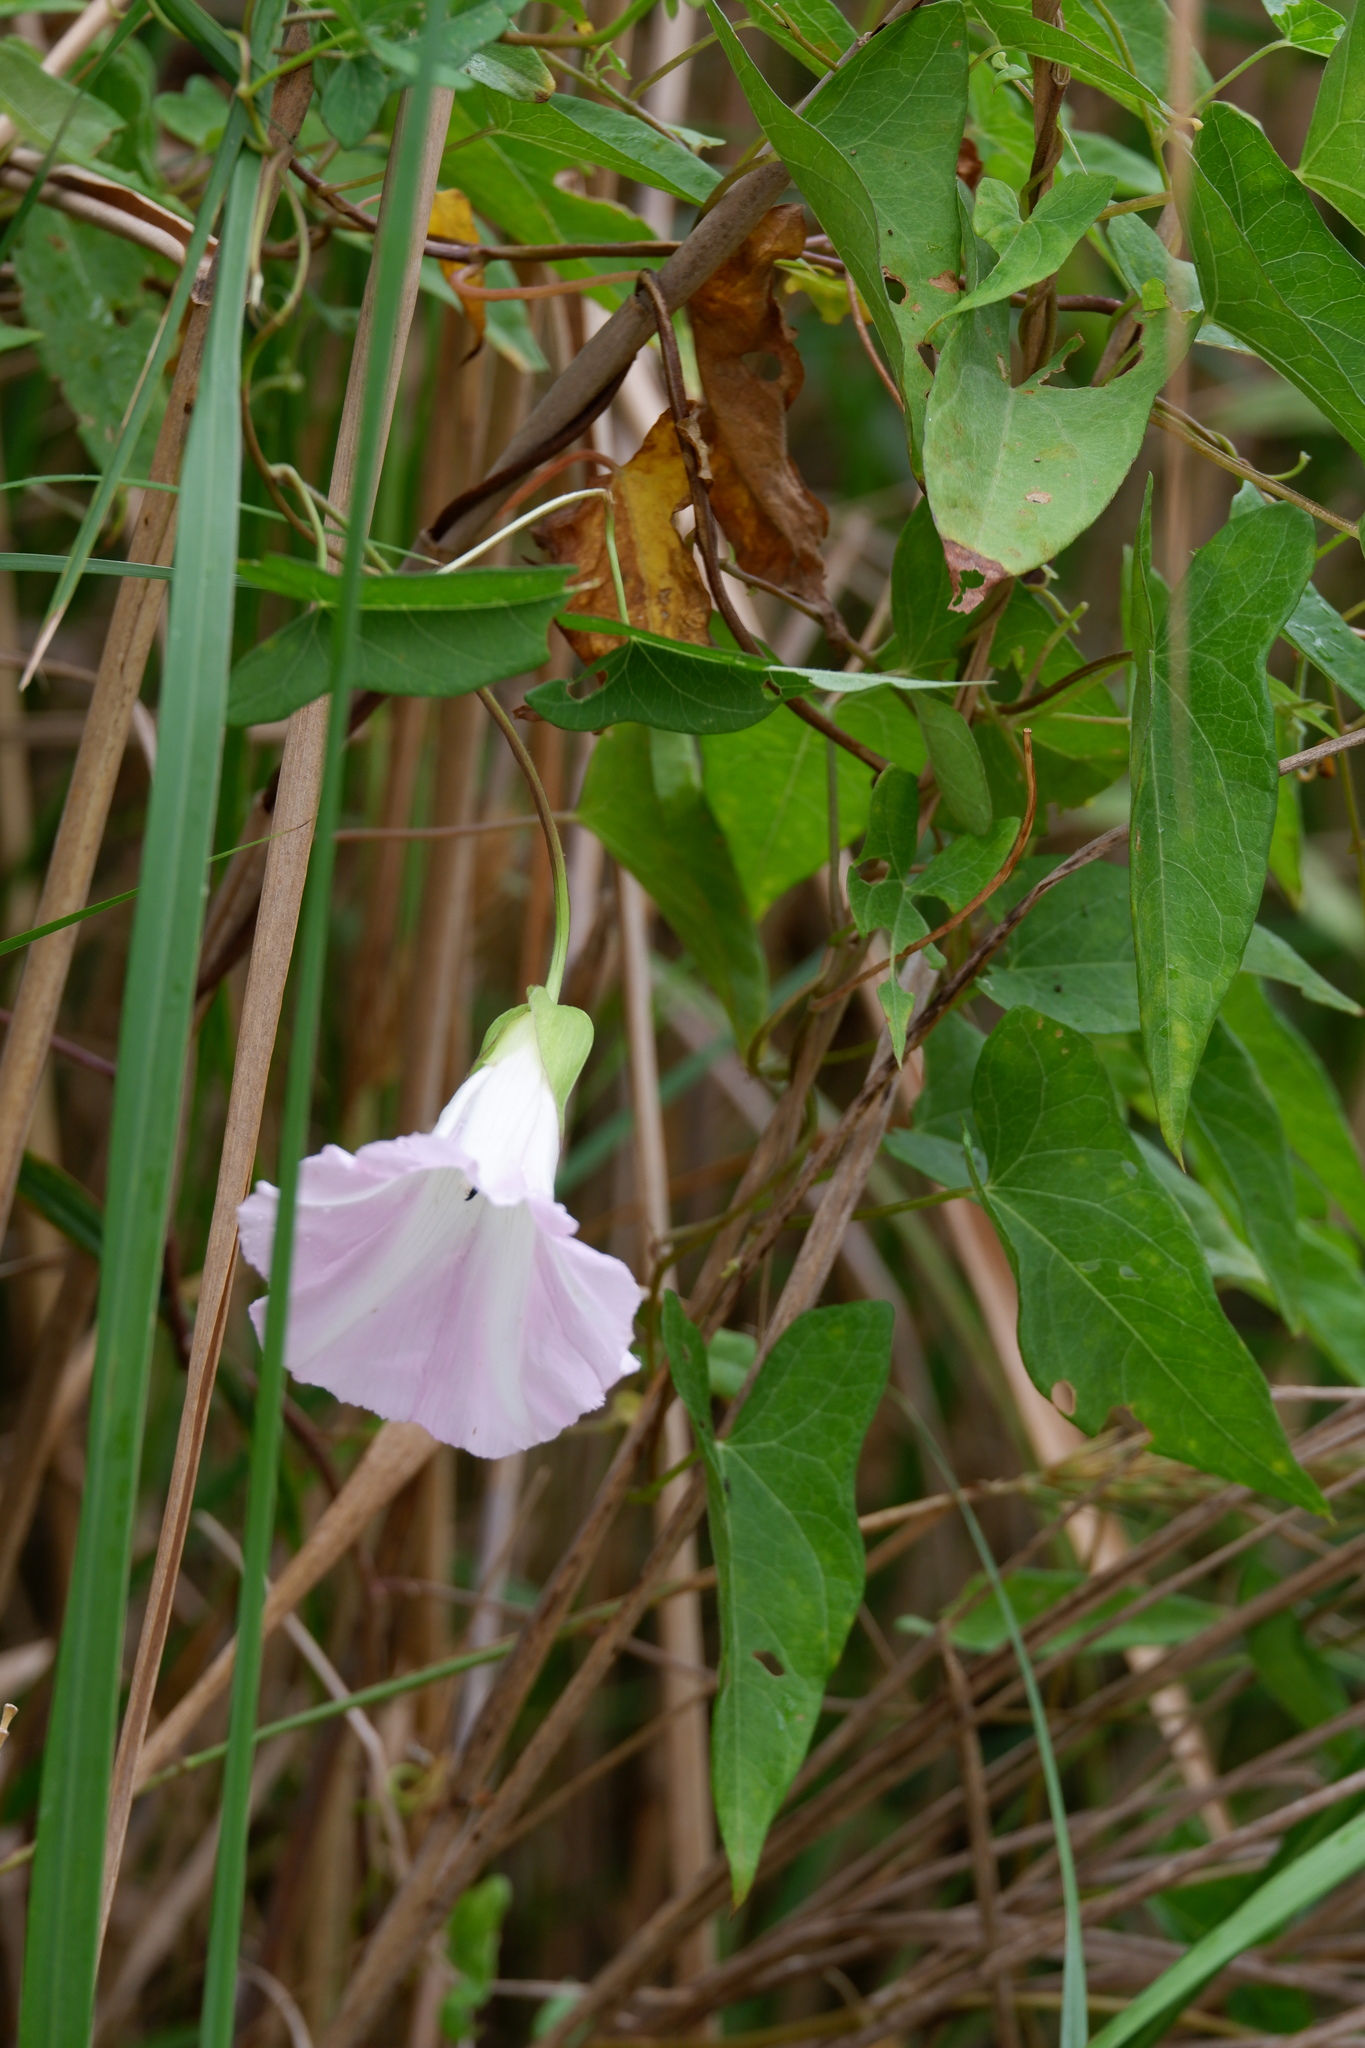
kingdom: Plantae
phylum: Tracheophyta
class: Magnoliopsida
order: Solanales
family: Convolvulaceae
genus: Calystegia
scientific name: Calystegia sepium
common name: Hedge bindweed
